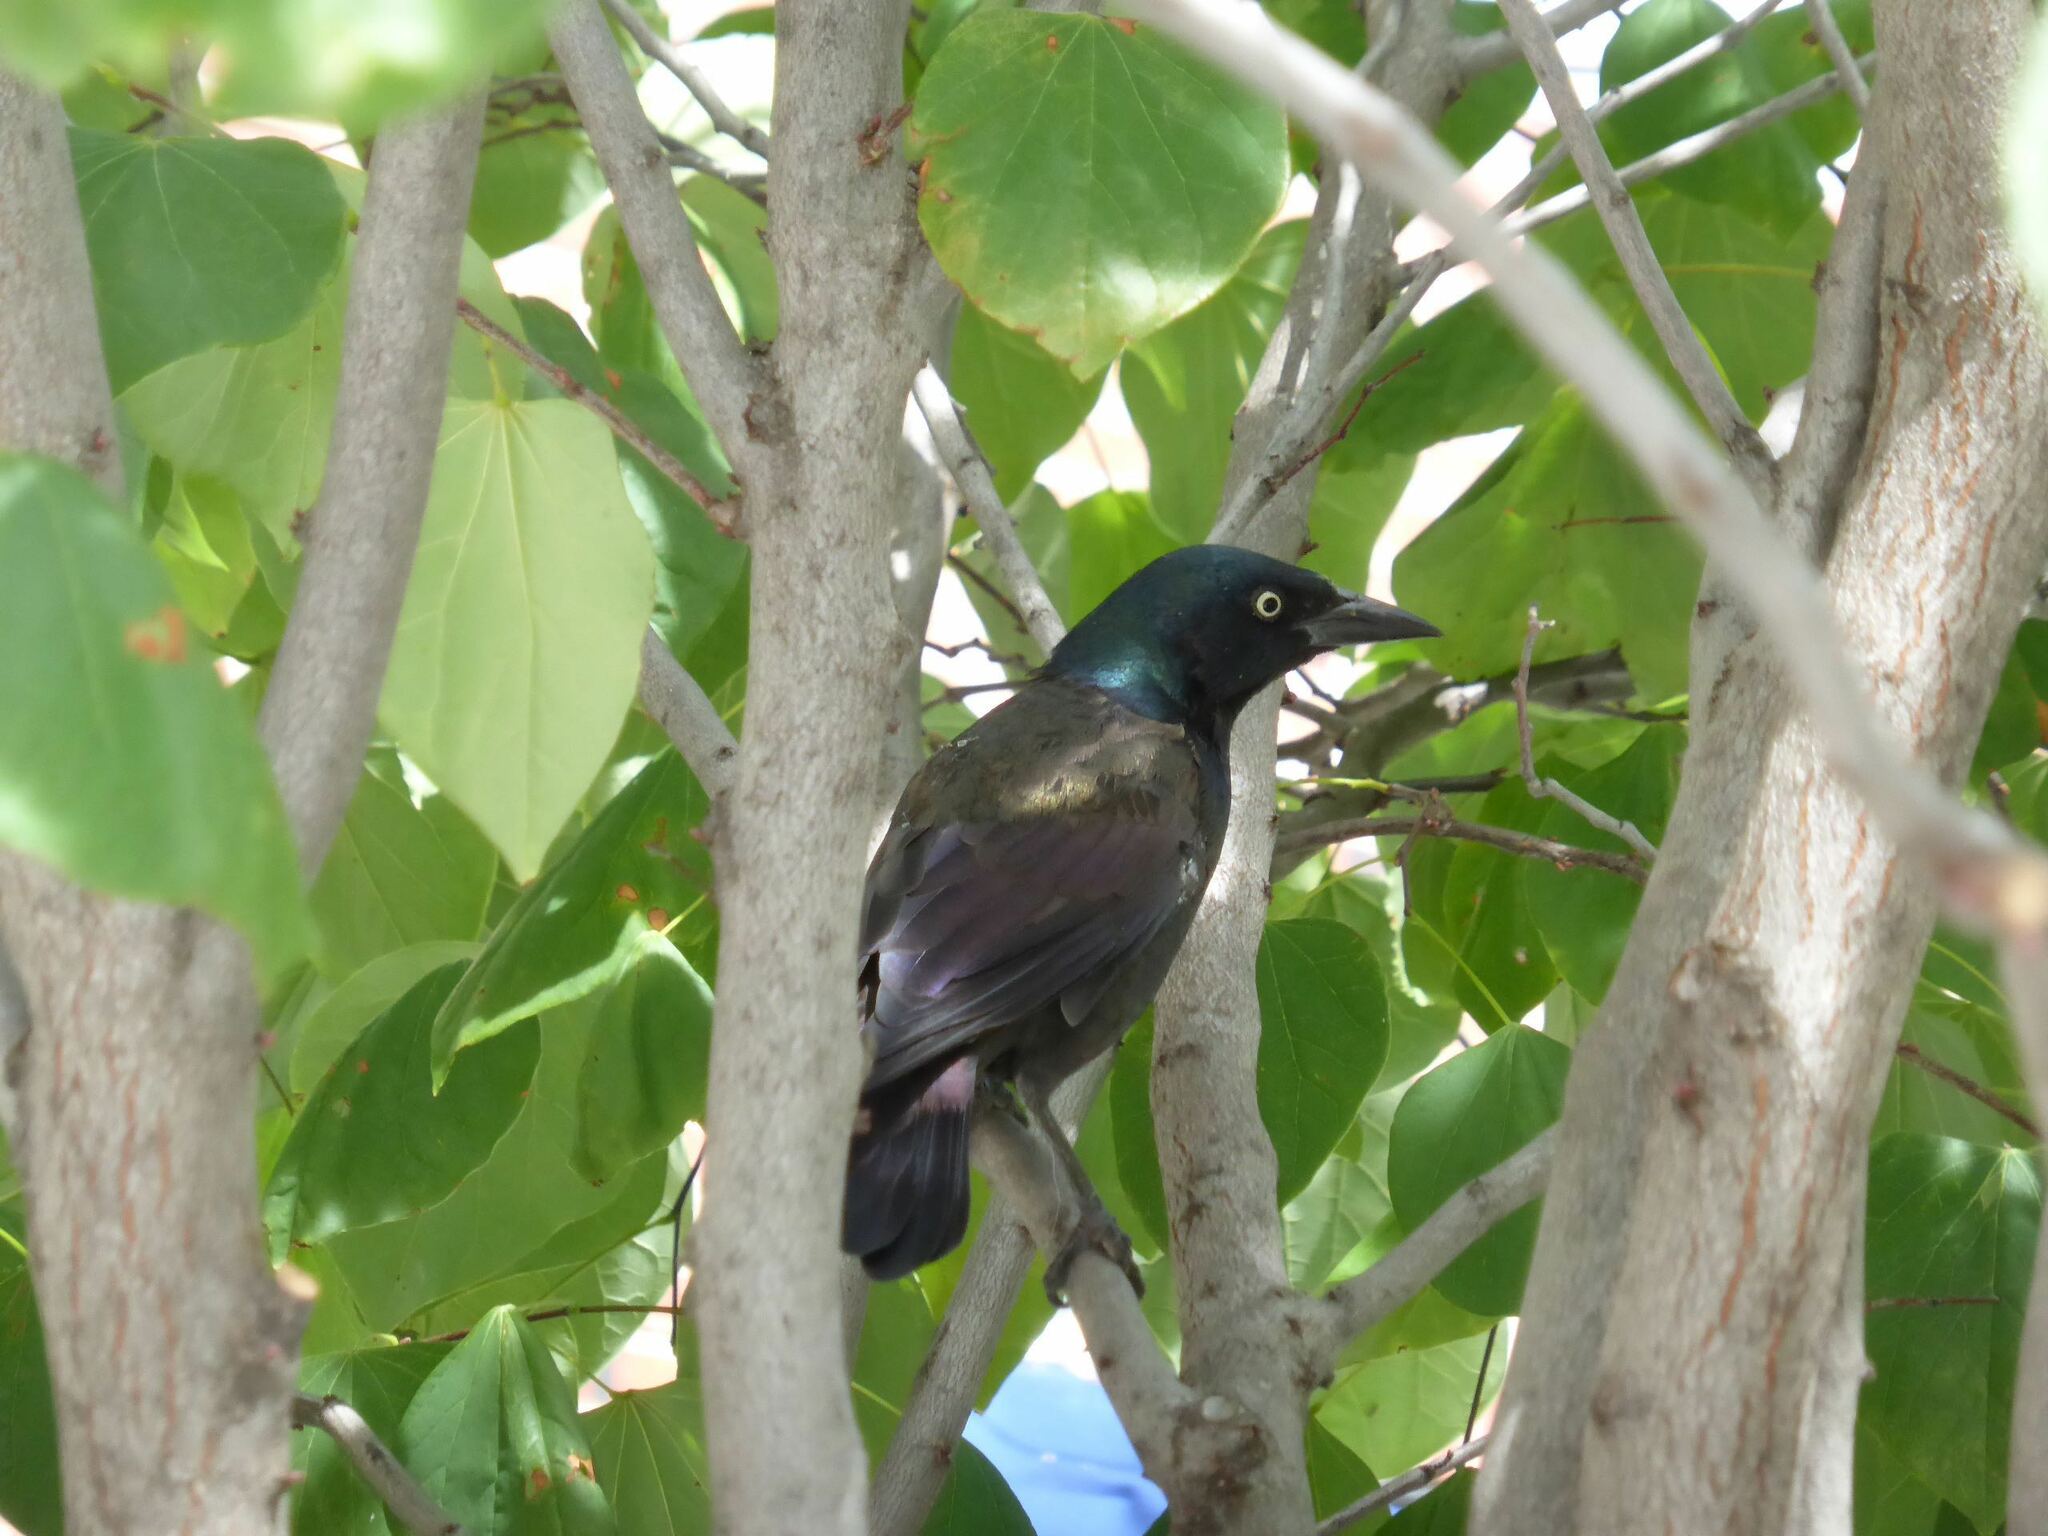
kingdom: Animalia
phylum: Chordata
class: Aves
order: Passeriformes
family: Icteridae
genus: Quiscalus
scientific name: Quiscalus quiscula
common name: Common grackle
